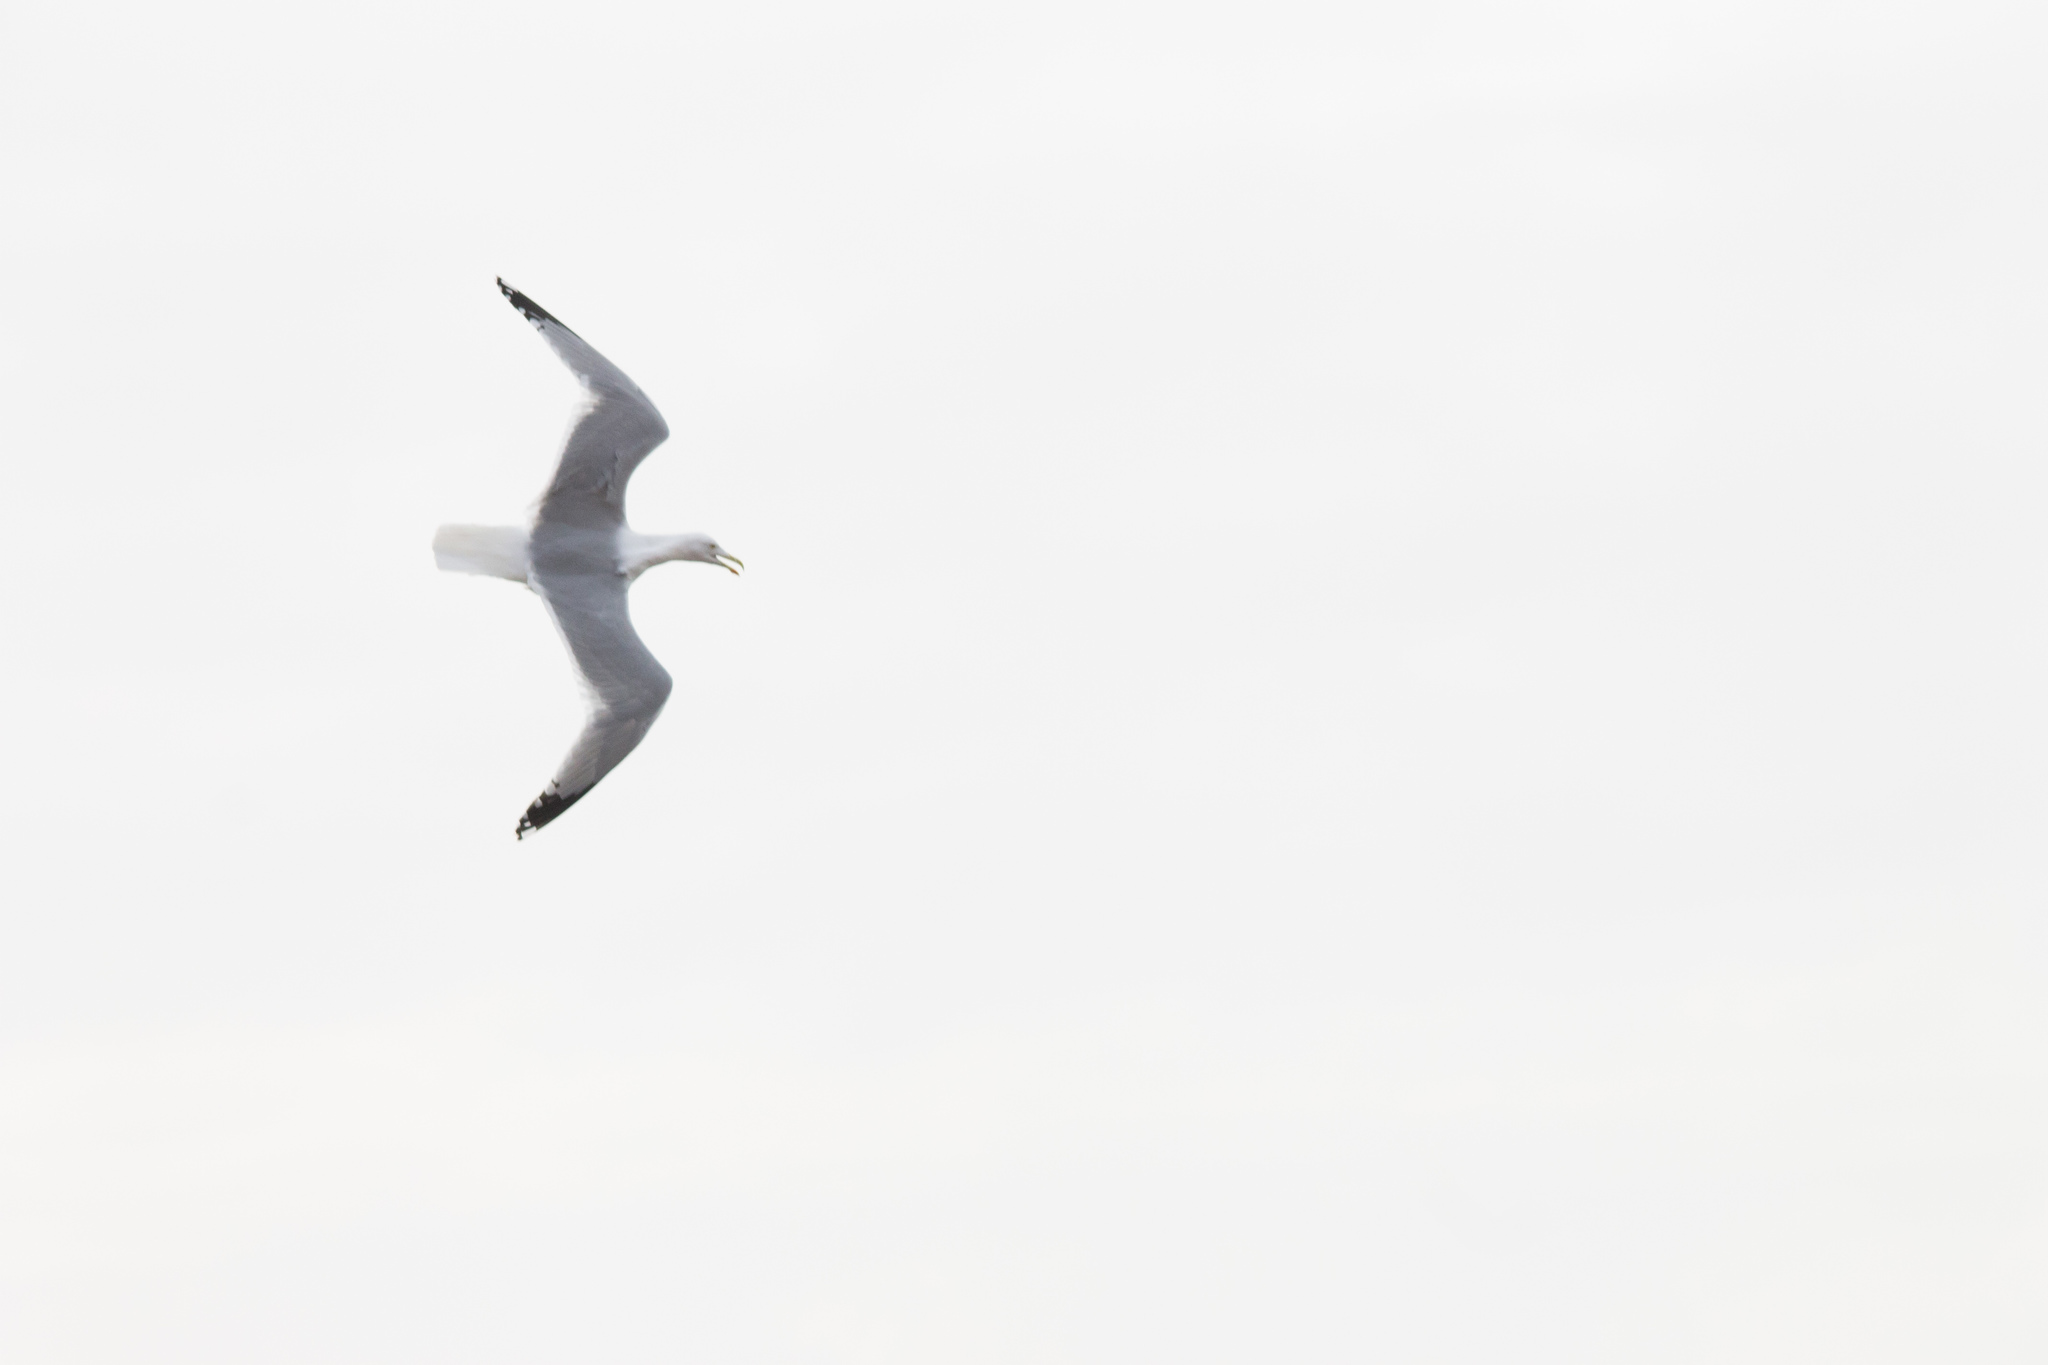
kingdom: Animalia
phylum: Chordata
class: Aves
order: Charadriiformes
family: Laridae
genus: Larus
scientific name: Larus argentatus
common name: Herring gull
